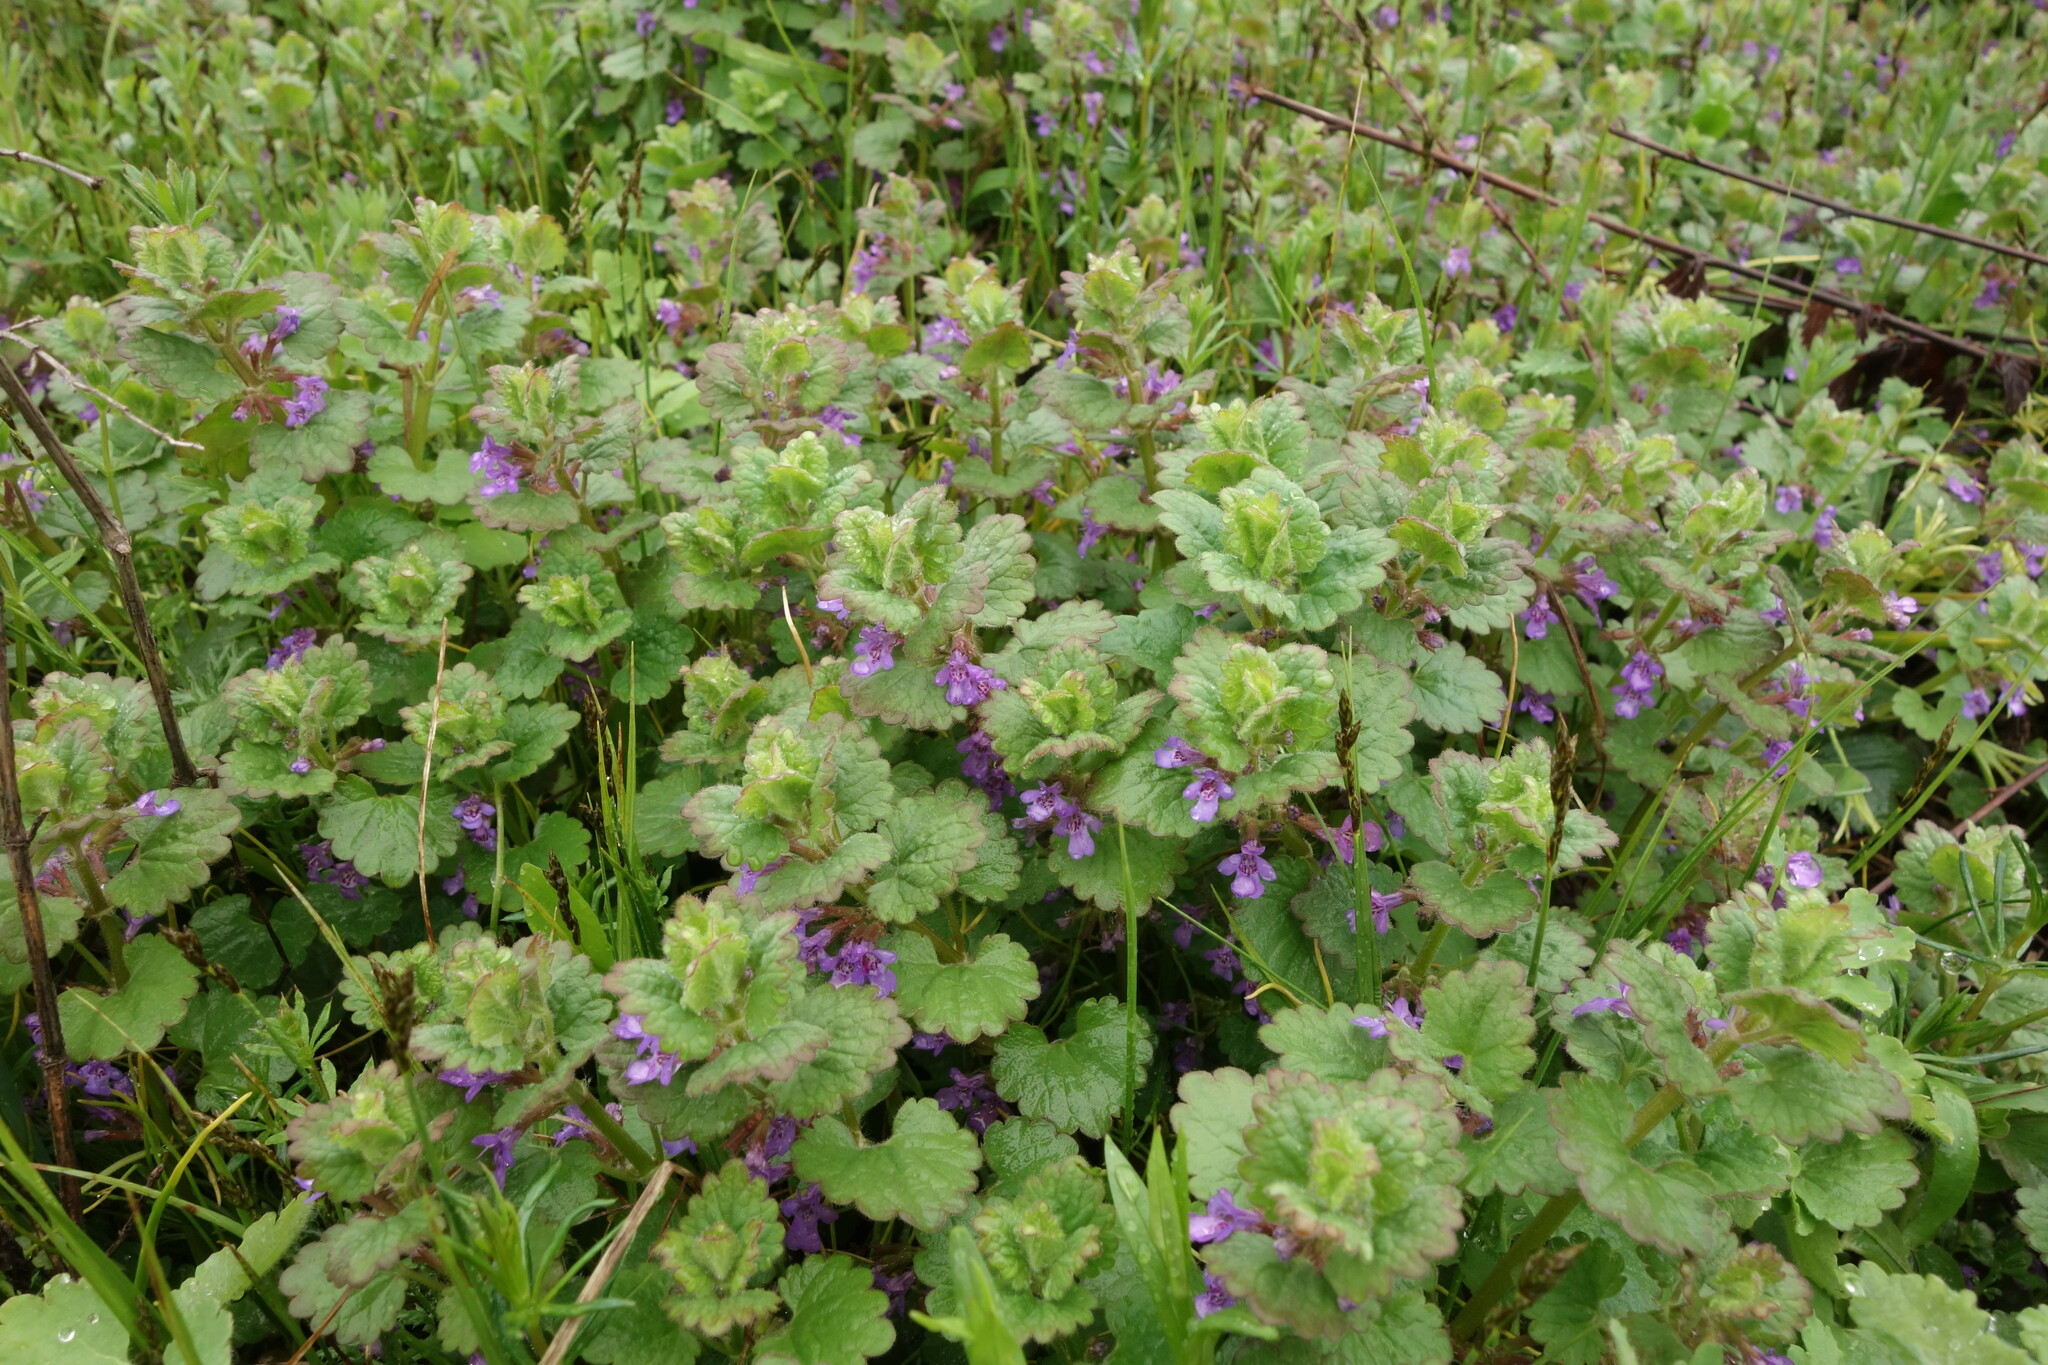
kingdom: Plantae
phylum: Tracheophyta
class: Magnoliopsida
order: Lamiales
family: Lamiaceae
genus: Glechoma
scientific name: Glechoma hederacea
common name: Ground ivy
